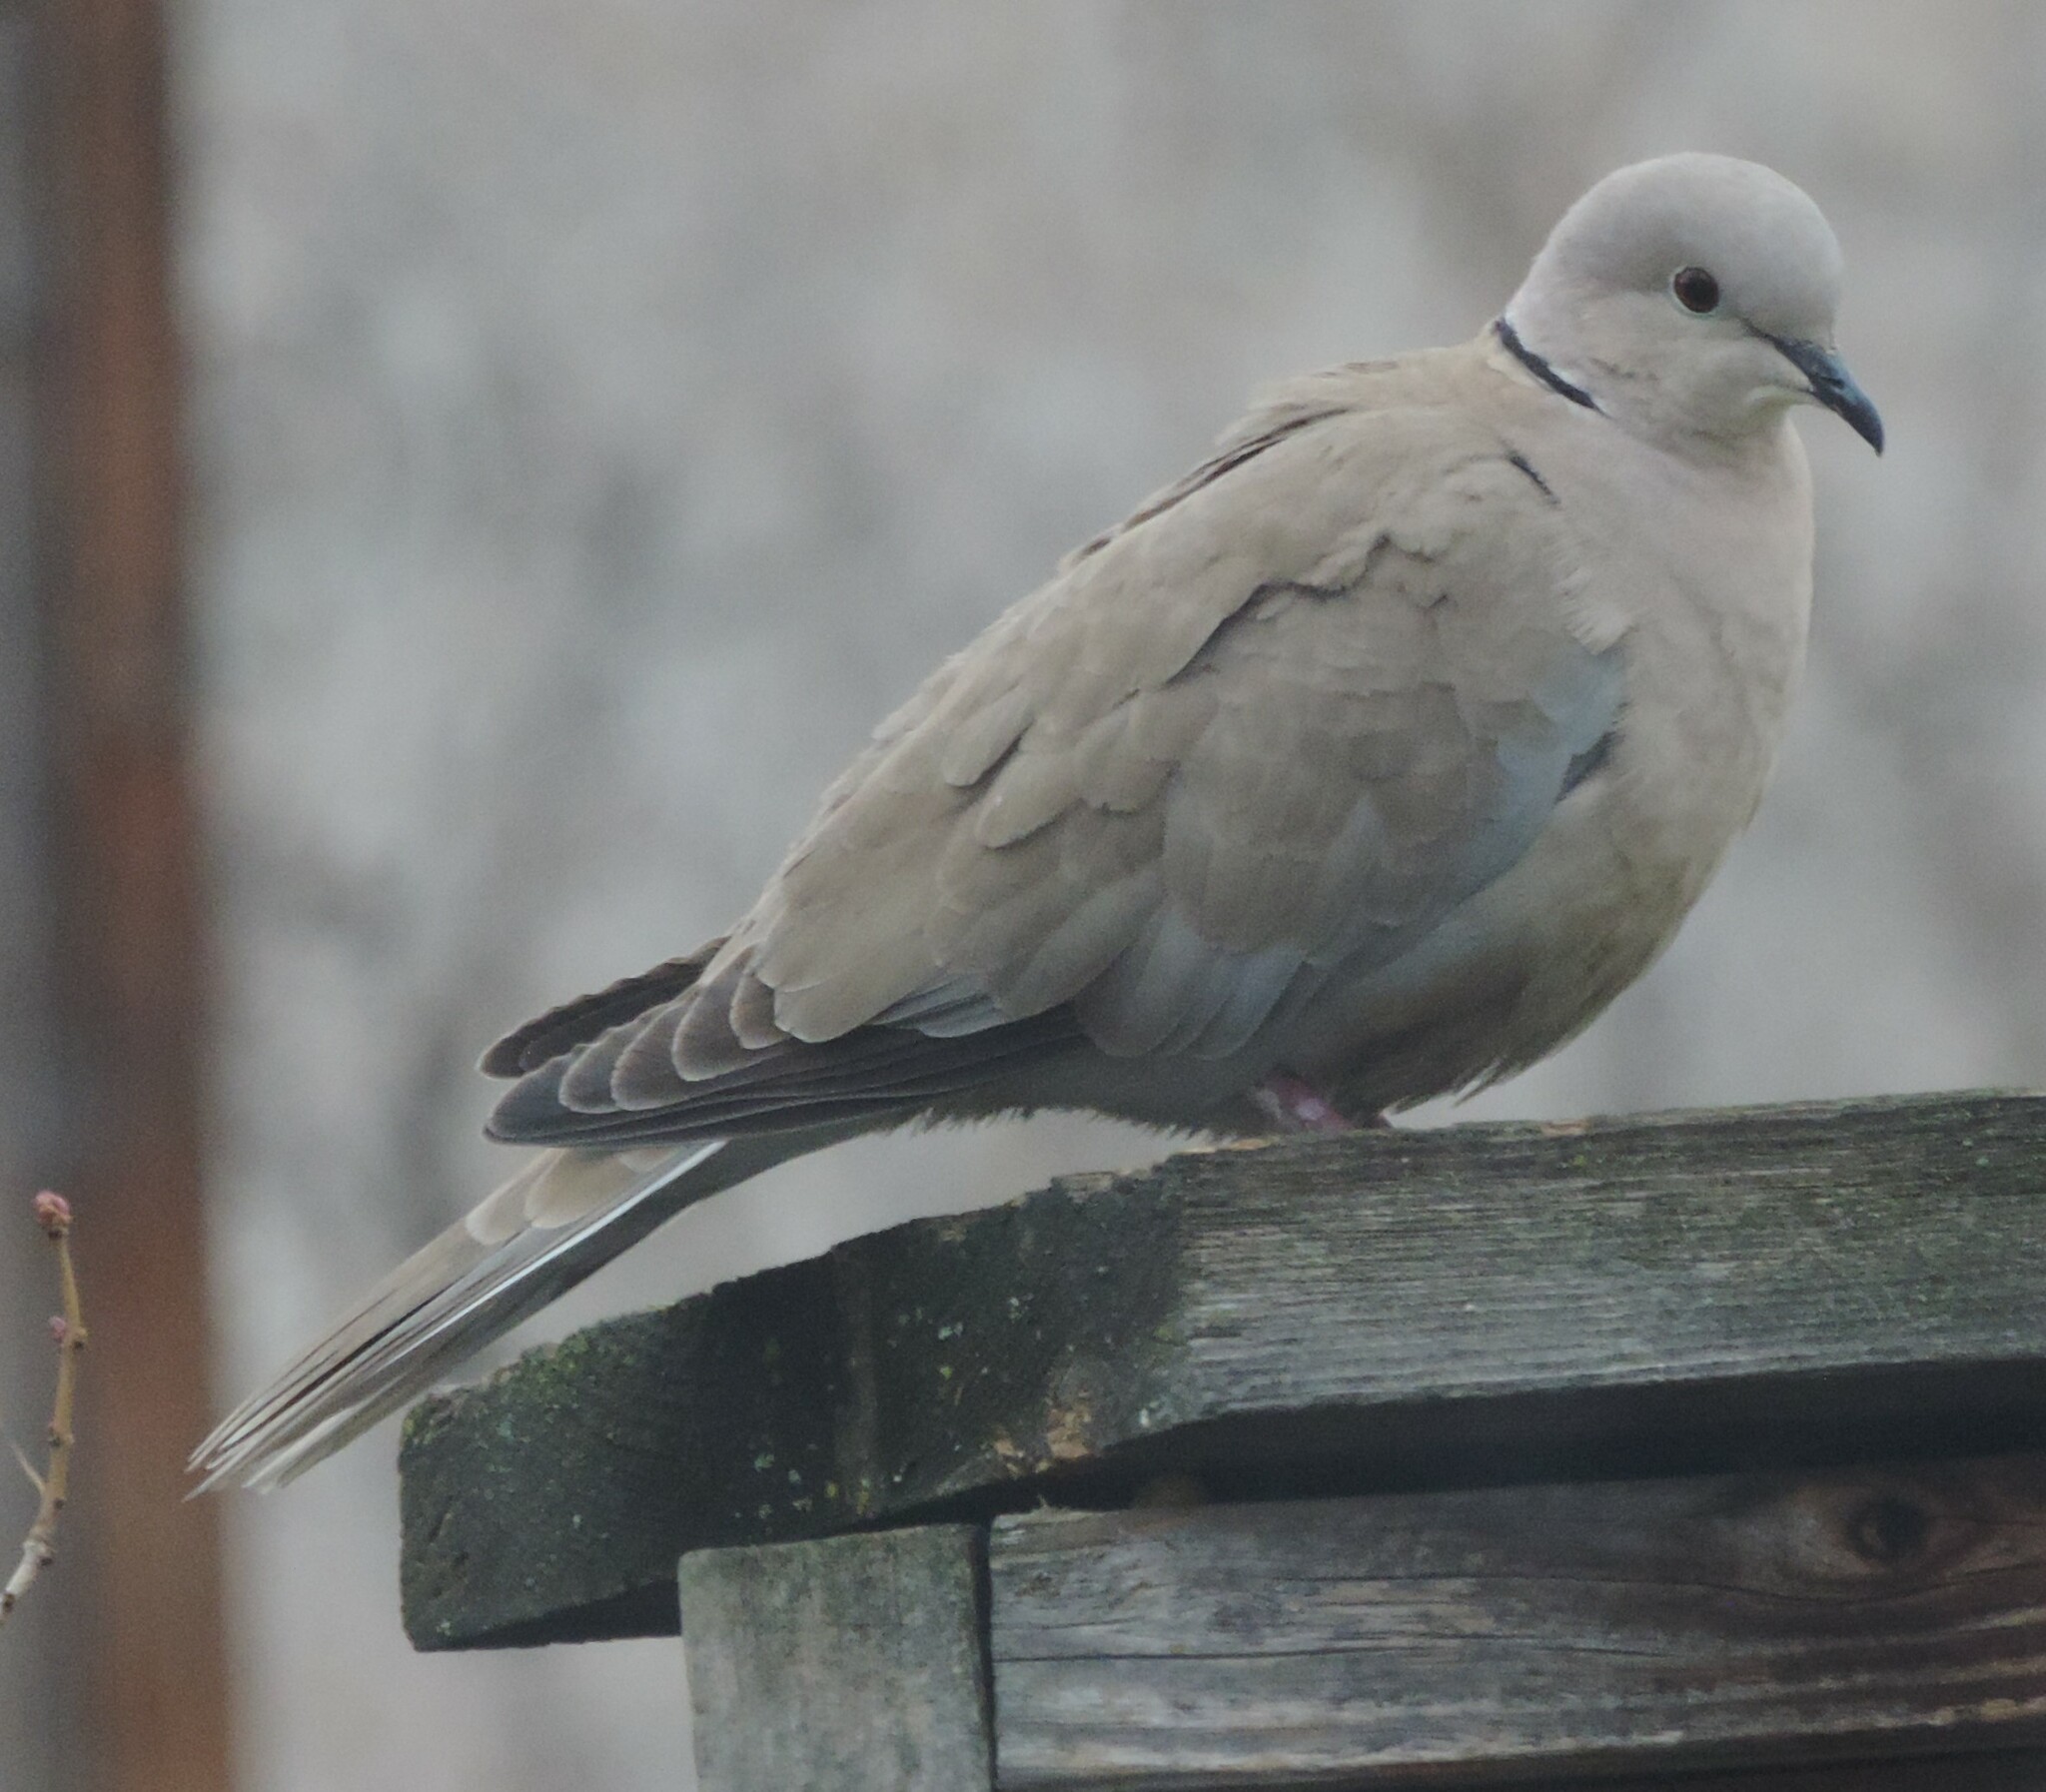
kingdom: Animalia
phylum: Chordata
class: Aves
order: Columbiformes
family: Columbidae
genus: Streptopelia
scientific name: Streptopelia decaocto
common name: Eurasian collared dove
